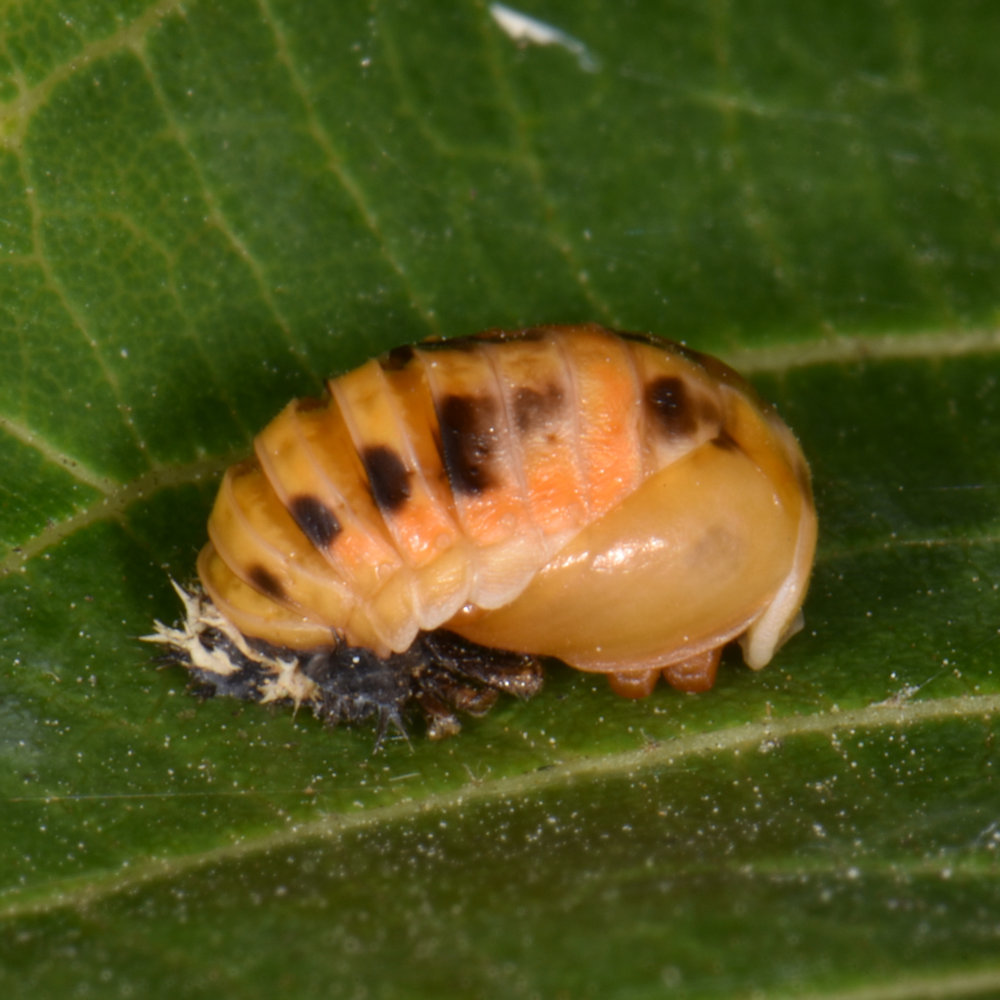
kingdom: Animalia
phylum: Arthropoda
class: Insecta
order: Coleoptera
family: Coccinellidae
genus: Harmonia
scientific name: Harmonia axyridis
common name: Harlequin ladybird
